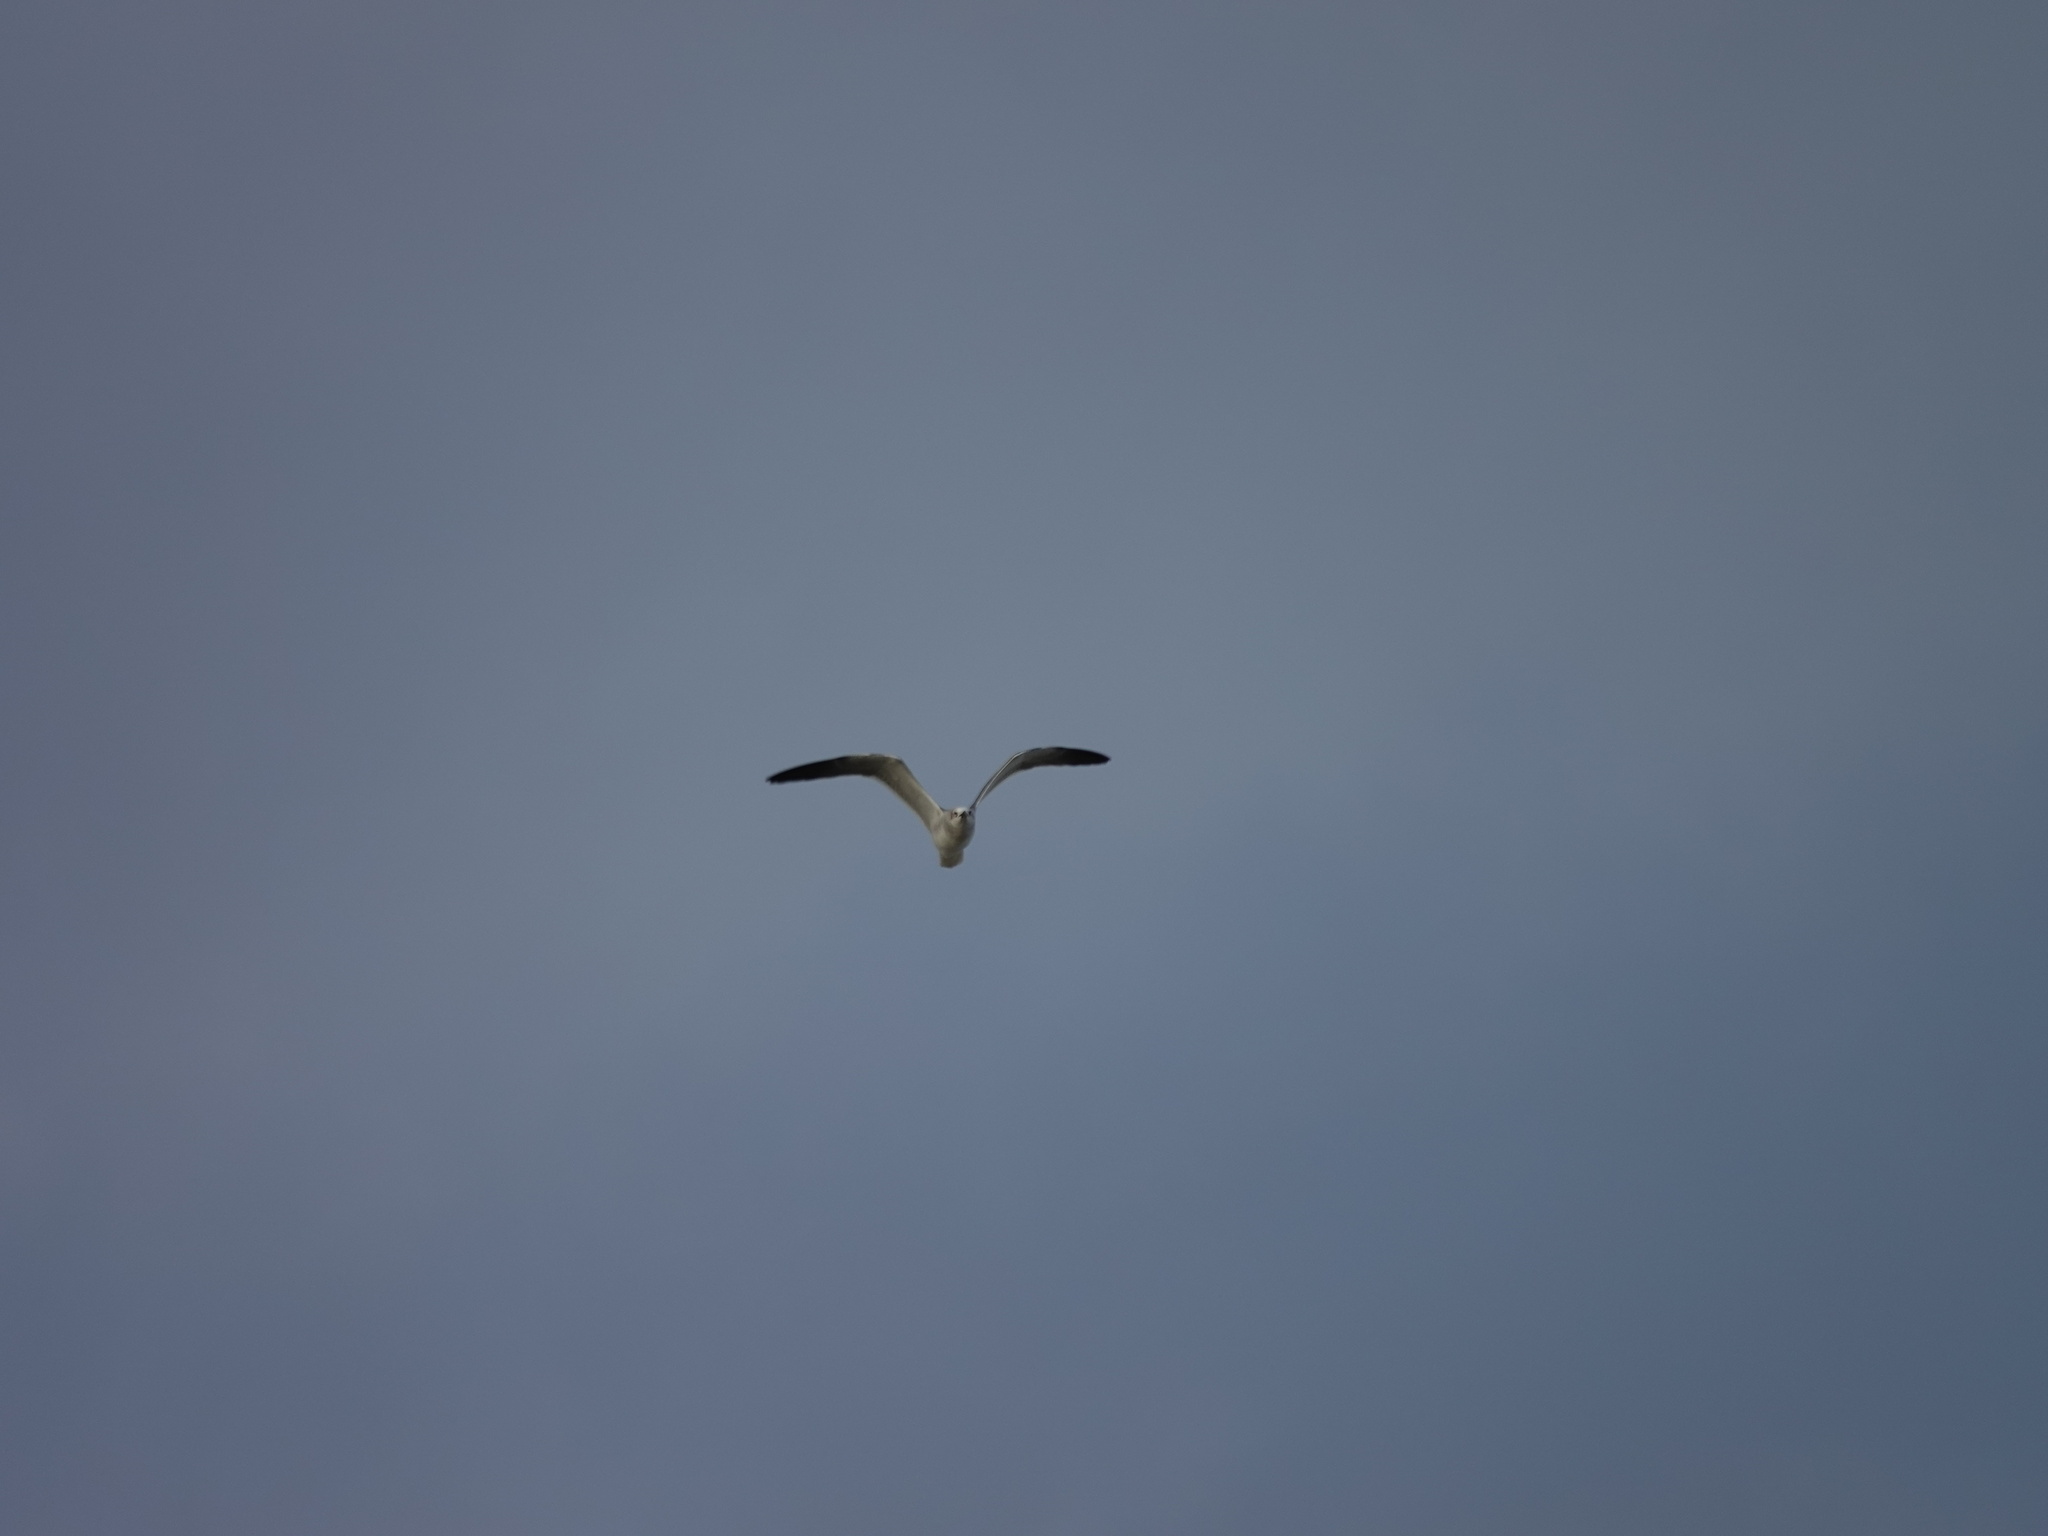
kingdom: Animalia
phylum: Chordata
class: Aves
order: Charadriiformes
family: Laridae
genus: Leucophaeus
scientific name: Leucophaeus atricilla
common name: Laughing gull
